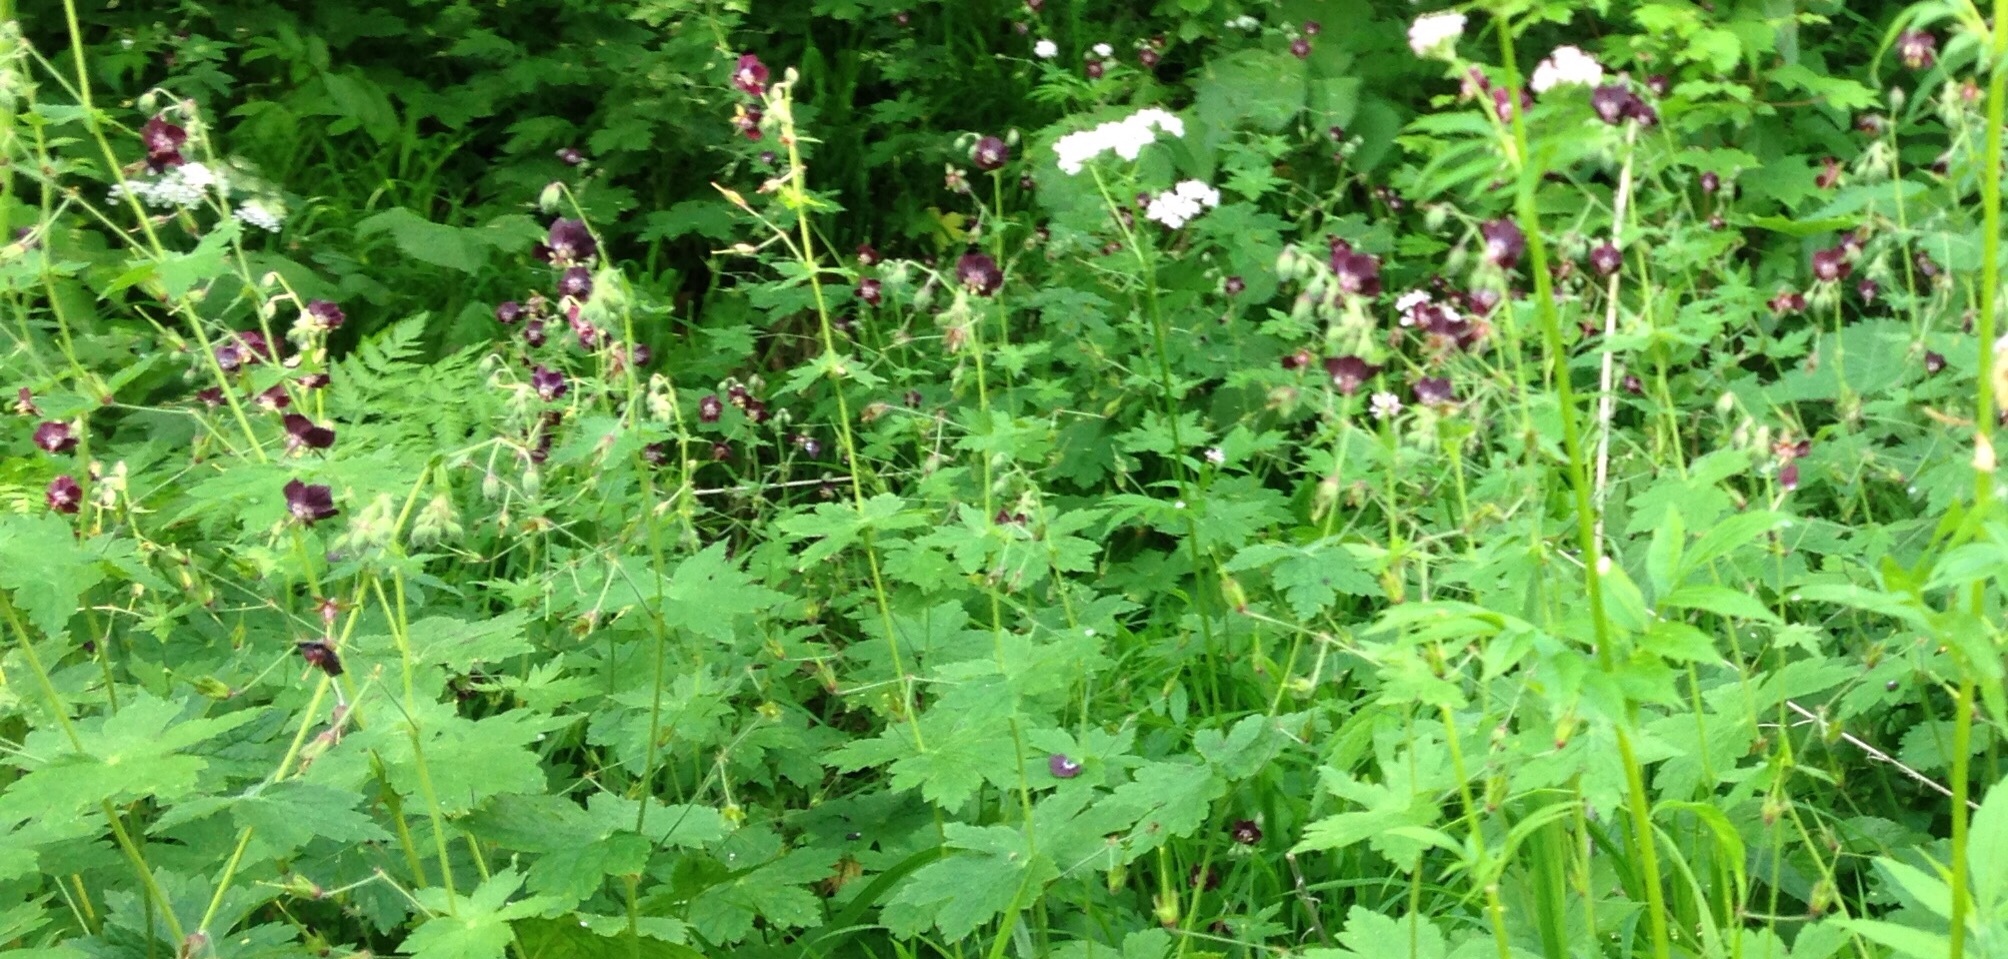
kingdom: Plantae
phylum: Tracheophyta
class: Magnoliopsida
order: Geraniales
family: Geraniaceae
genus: Geranium
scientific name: Geranium phaeum
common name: Dusky crane's-bill
